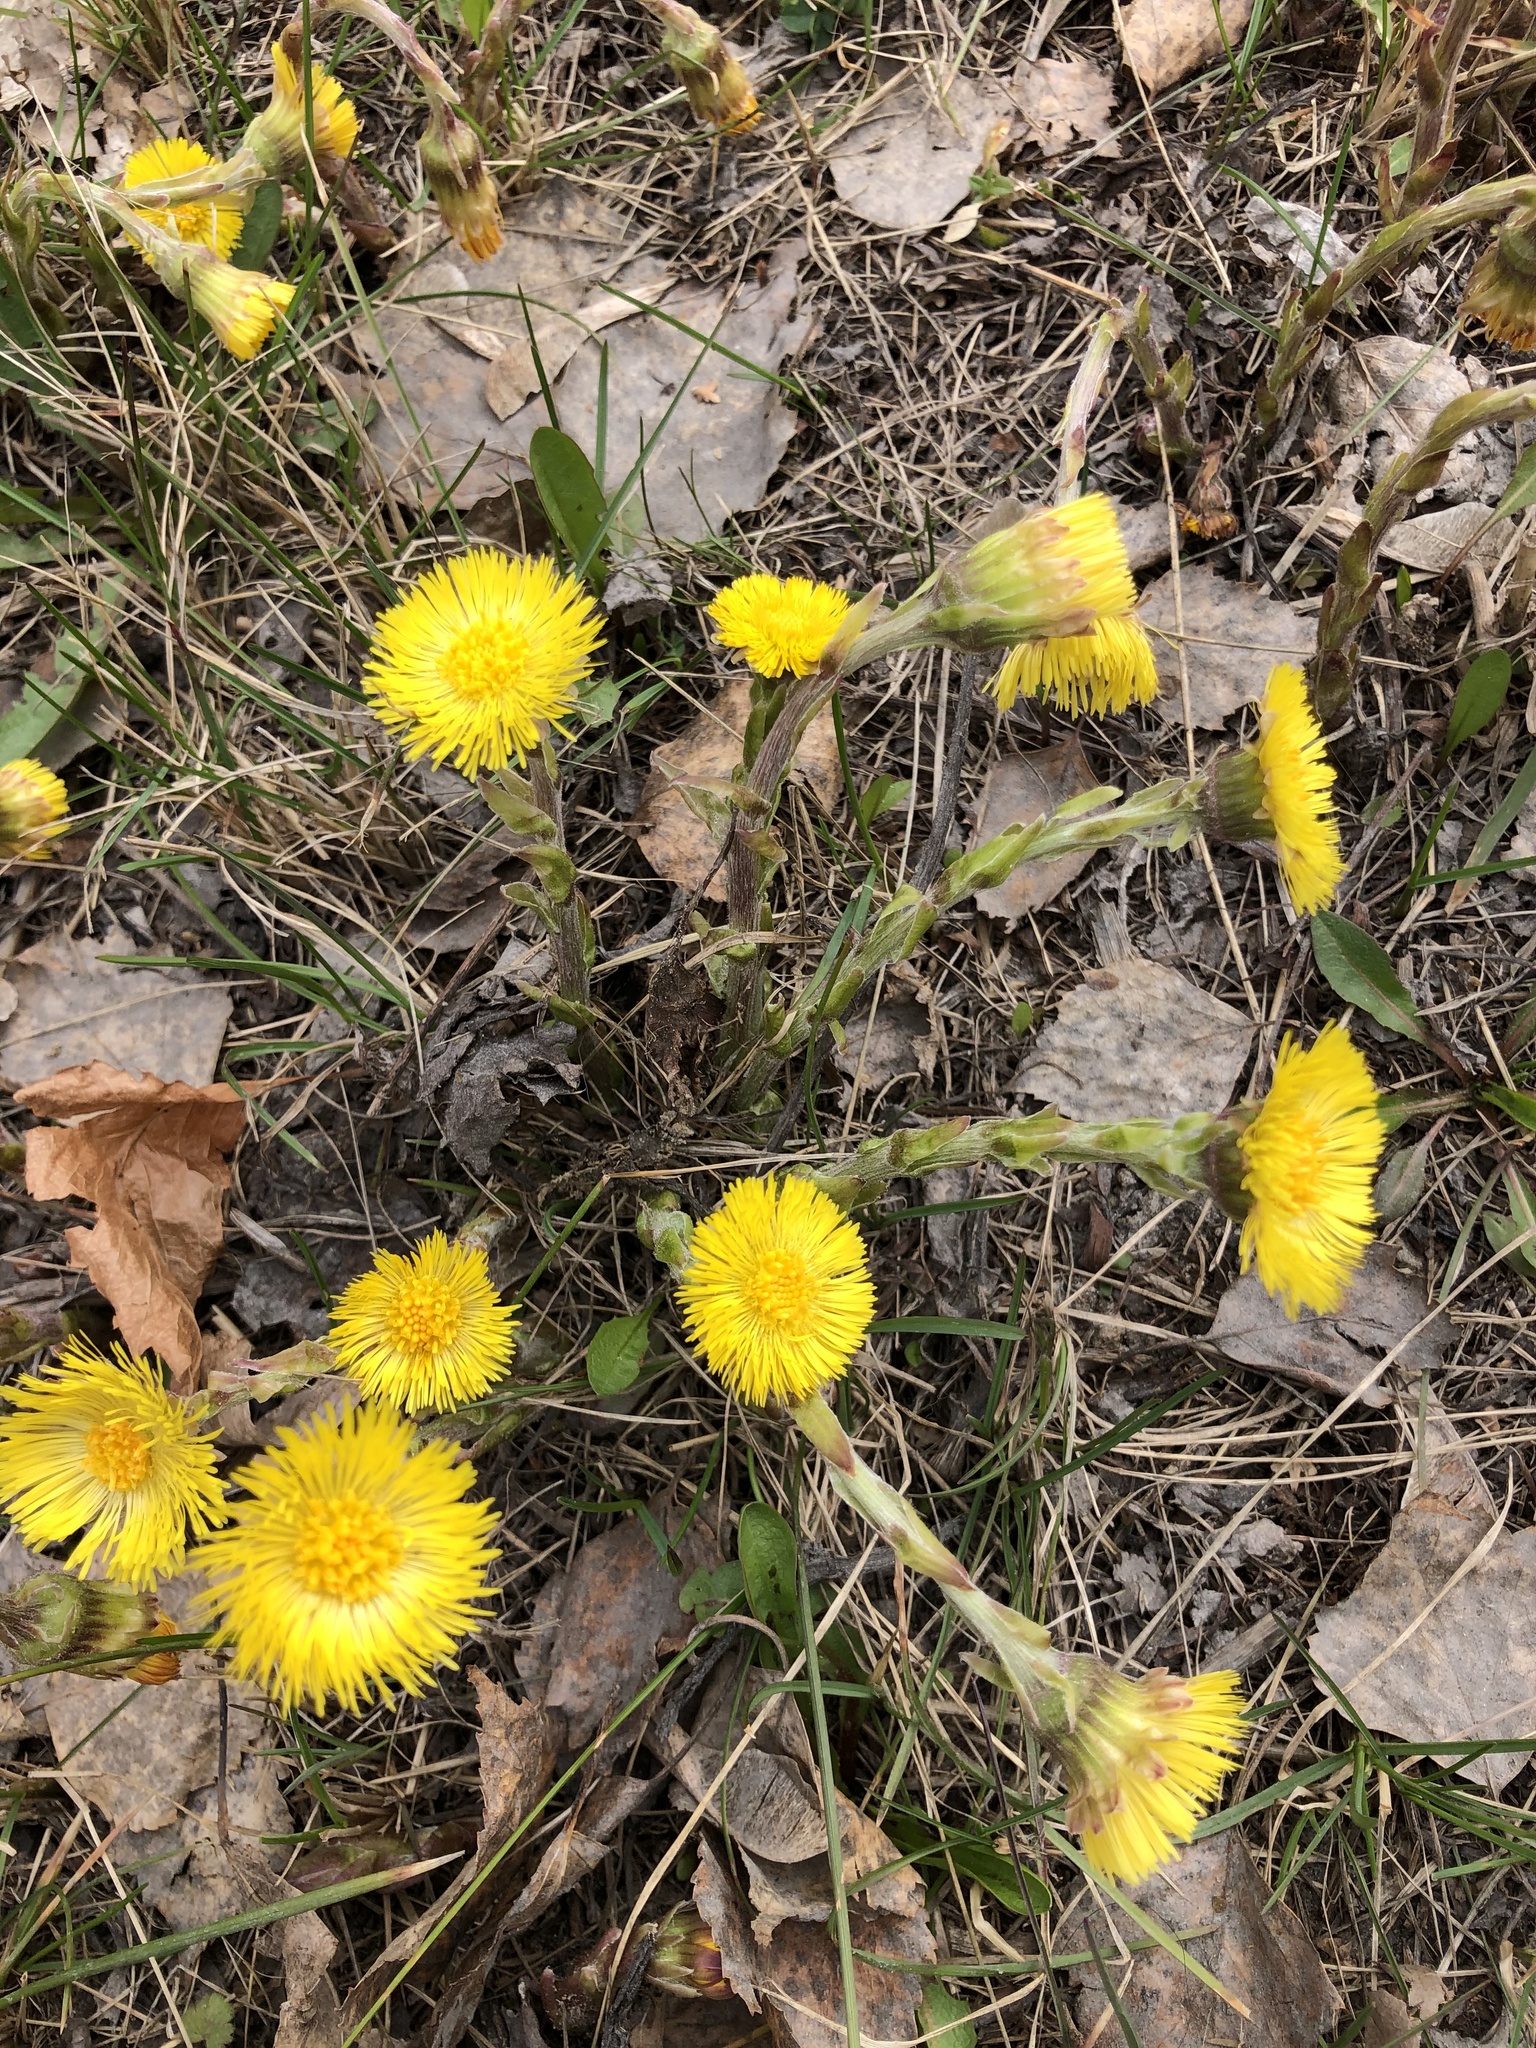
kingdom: Plantae
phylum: Tracheophyta
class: Magnoliopsida
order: Asterales
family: Asteraceae
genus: Tussilago
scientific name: Tussilago farfara
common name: Coltsfoot
